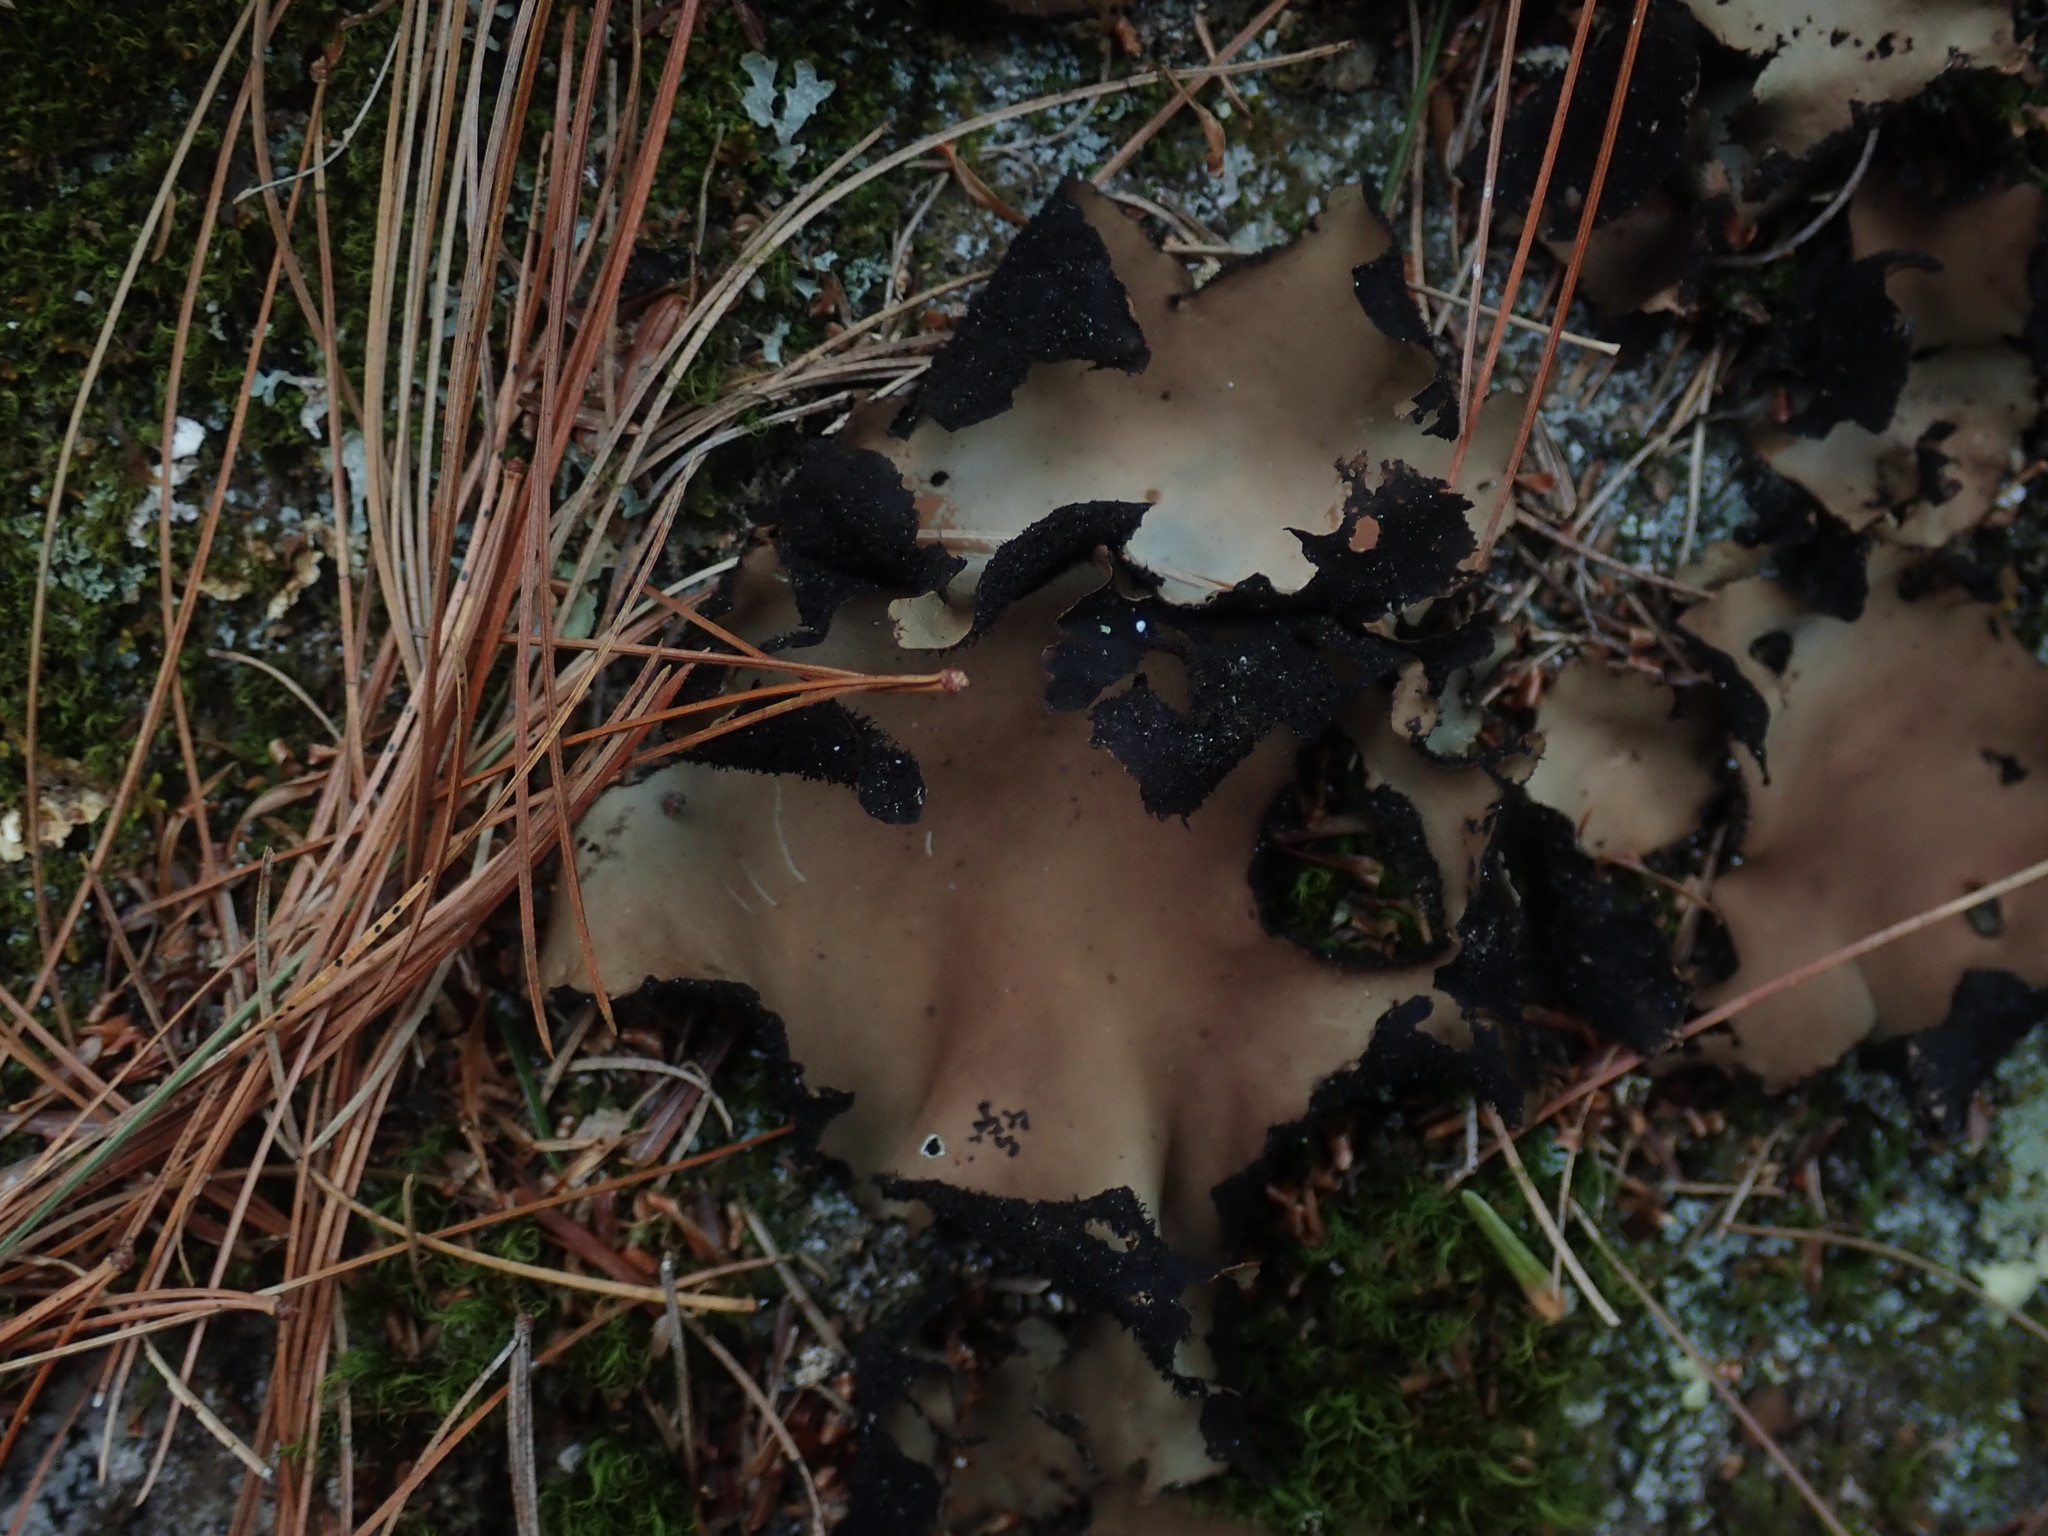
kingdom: Fungi
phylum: Ascomycota
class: Lecanoromycetes
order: Umbilicariales
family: Umbilicariaceae
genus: Umbilicaria
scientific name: Umbilicaria mammulata
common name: Smooth rock tripe
